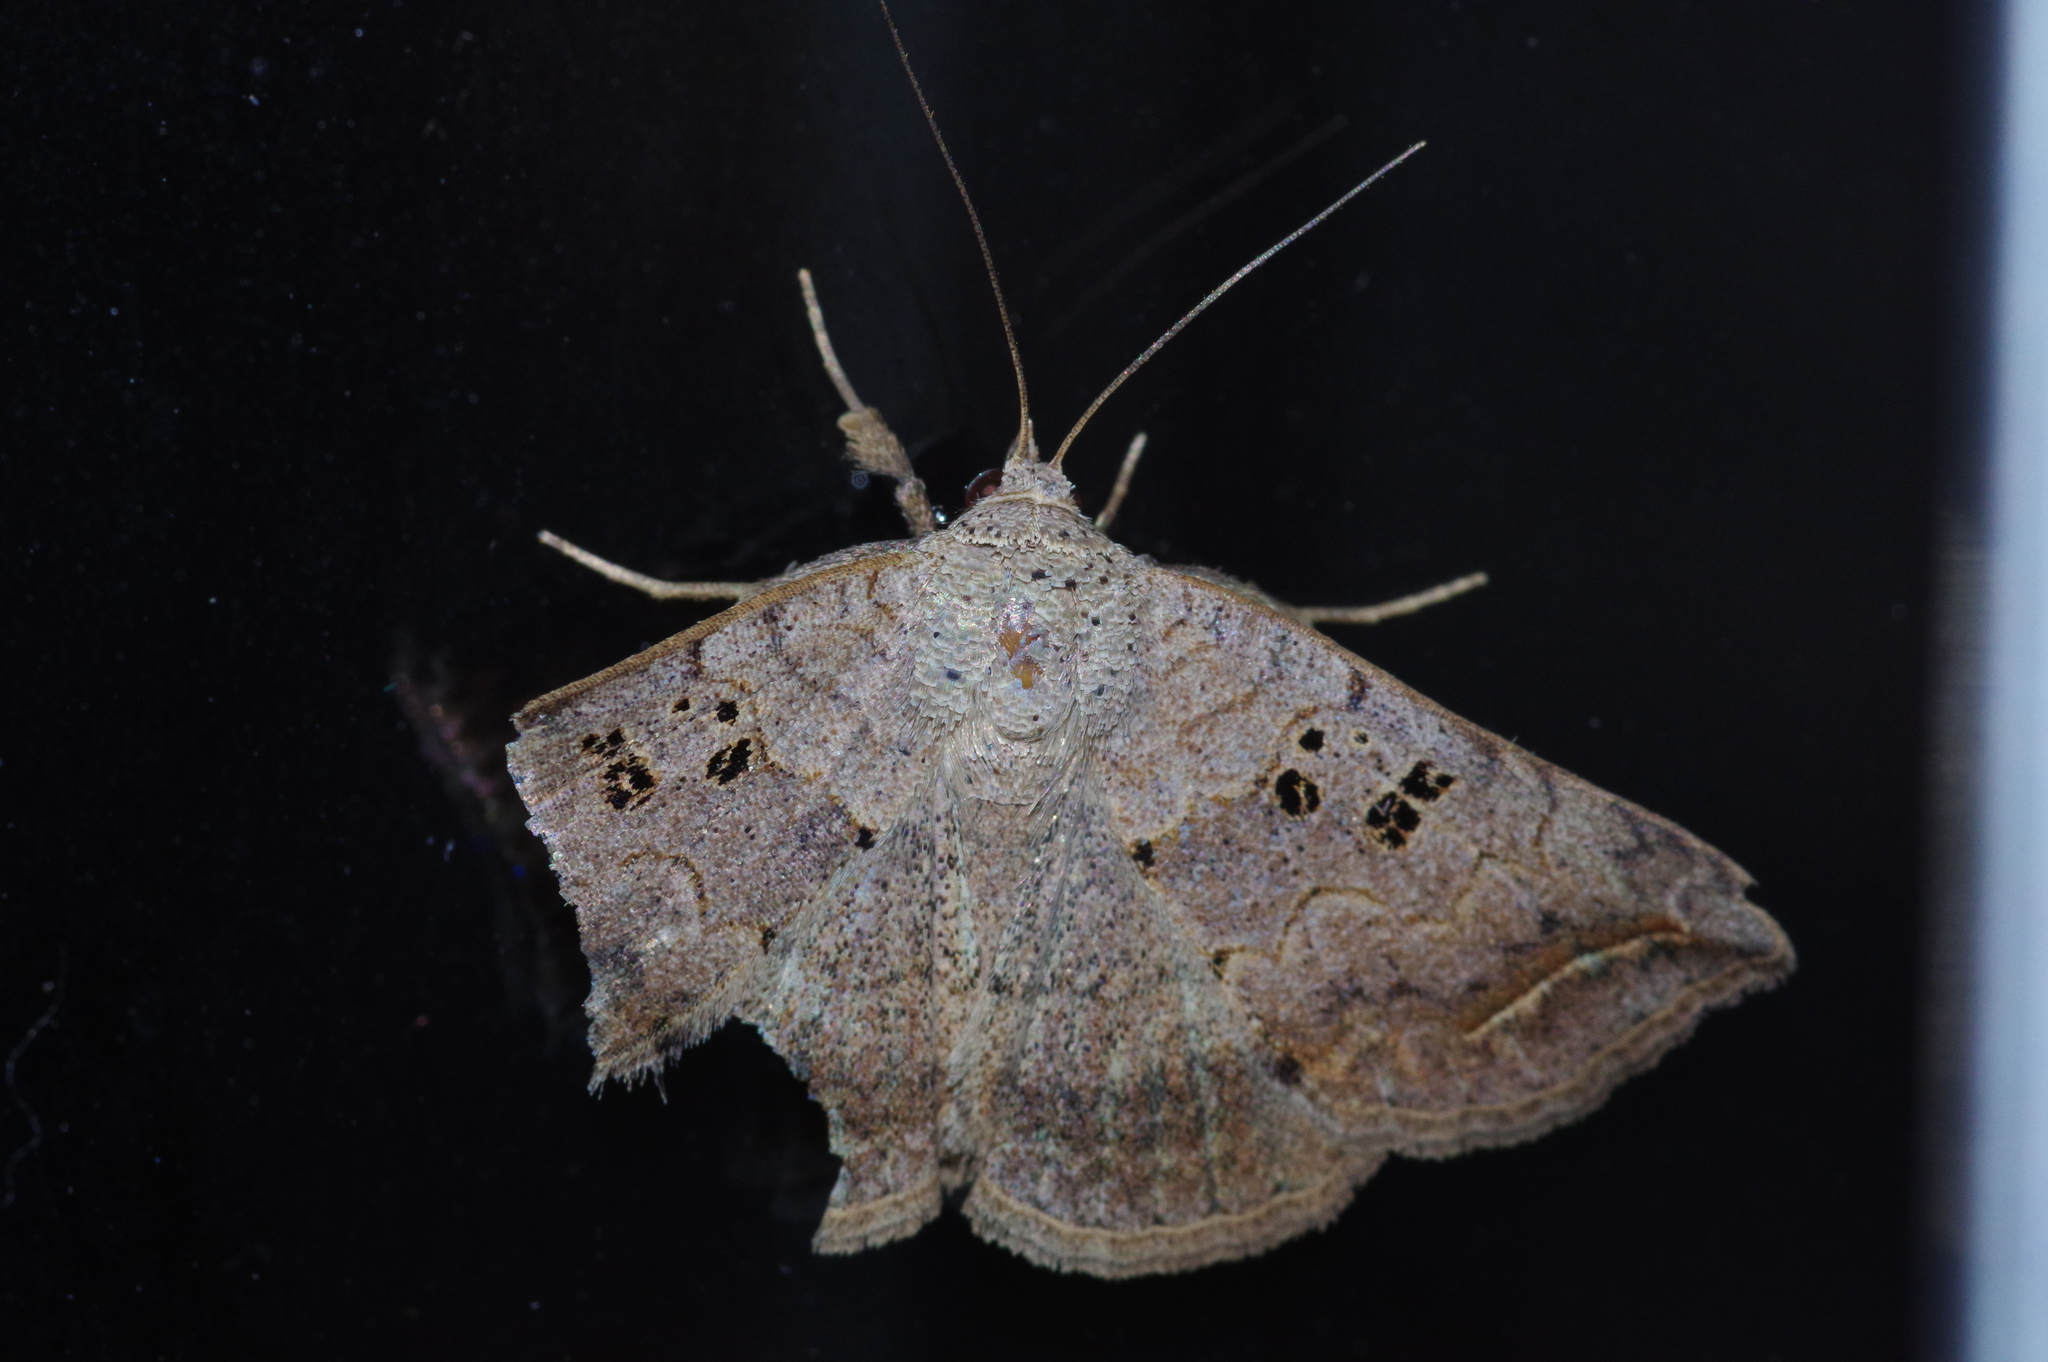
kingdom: Animalia
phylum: Arthropoda
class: Insecta
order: Lepidoptera
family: Erebidae
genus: Blasticorhinus
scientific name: Blasticorhinus rivulosa
